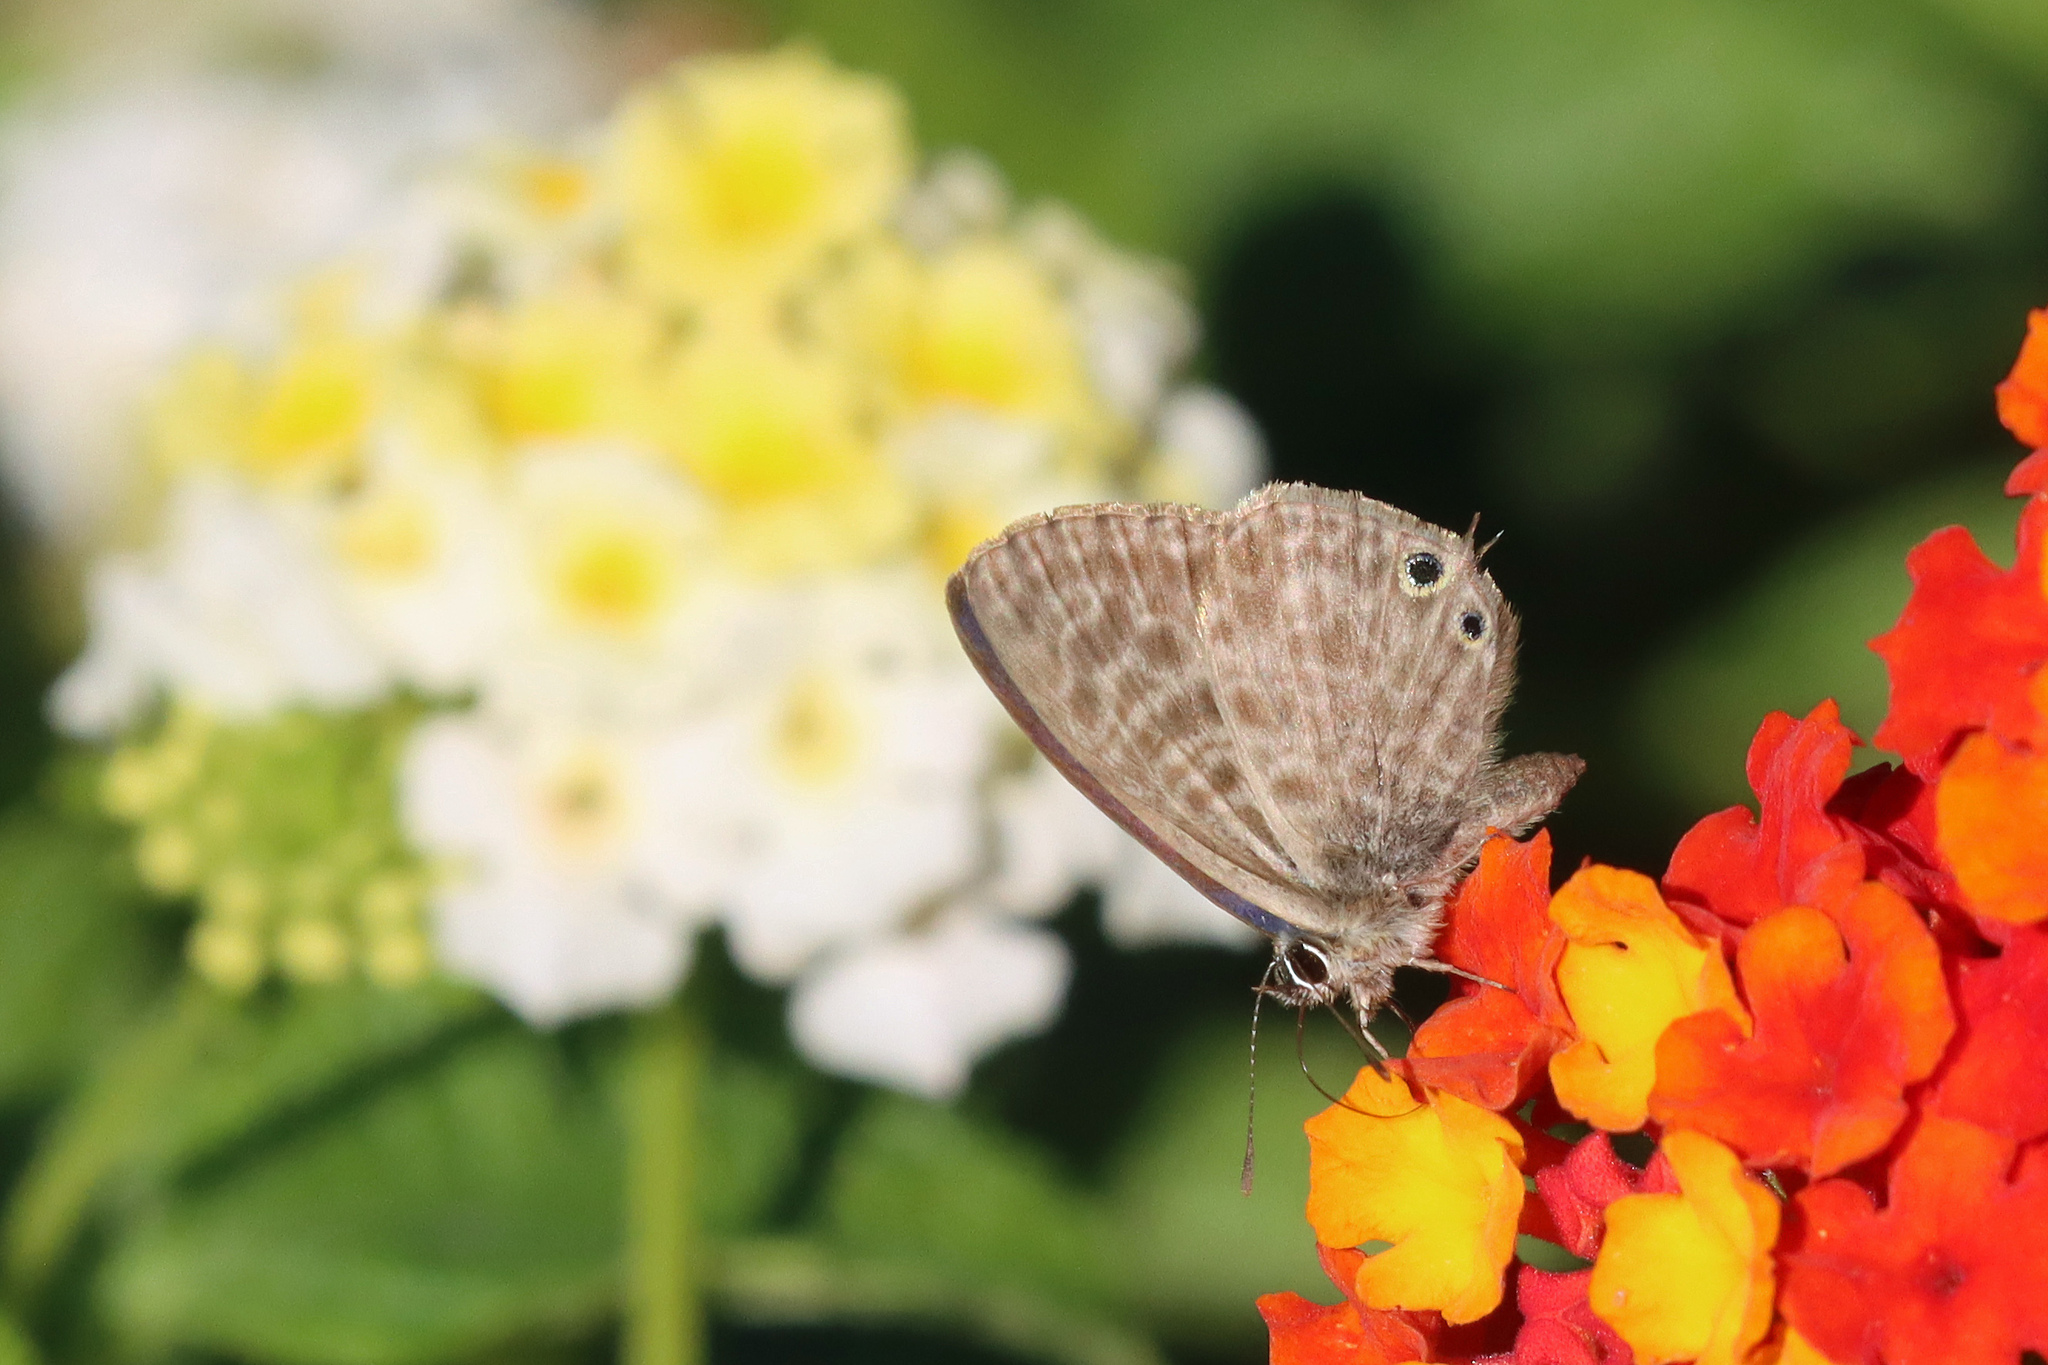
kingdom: Animalia
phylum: Arthropoda
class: Insecta
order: Lepidoptera
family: Lycaenidae
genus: Leptotes
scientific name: Leptotes pirithous
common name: Lang's short-tailed blue
